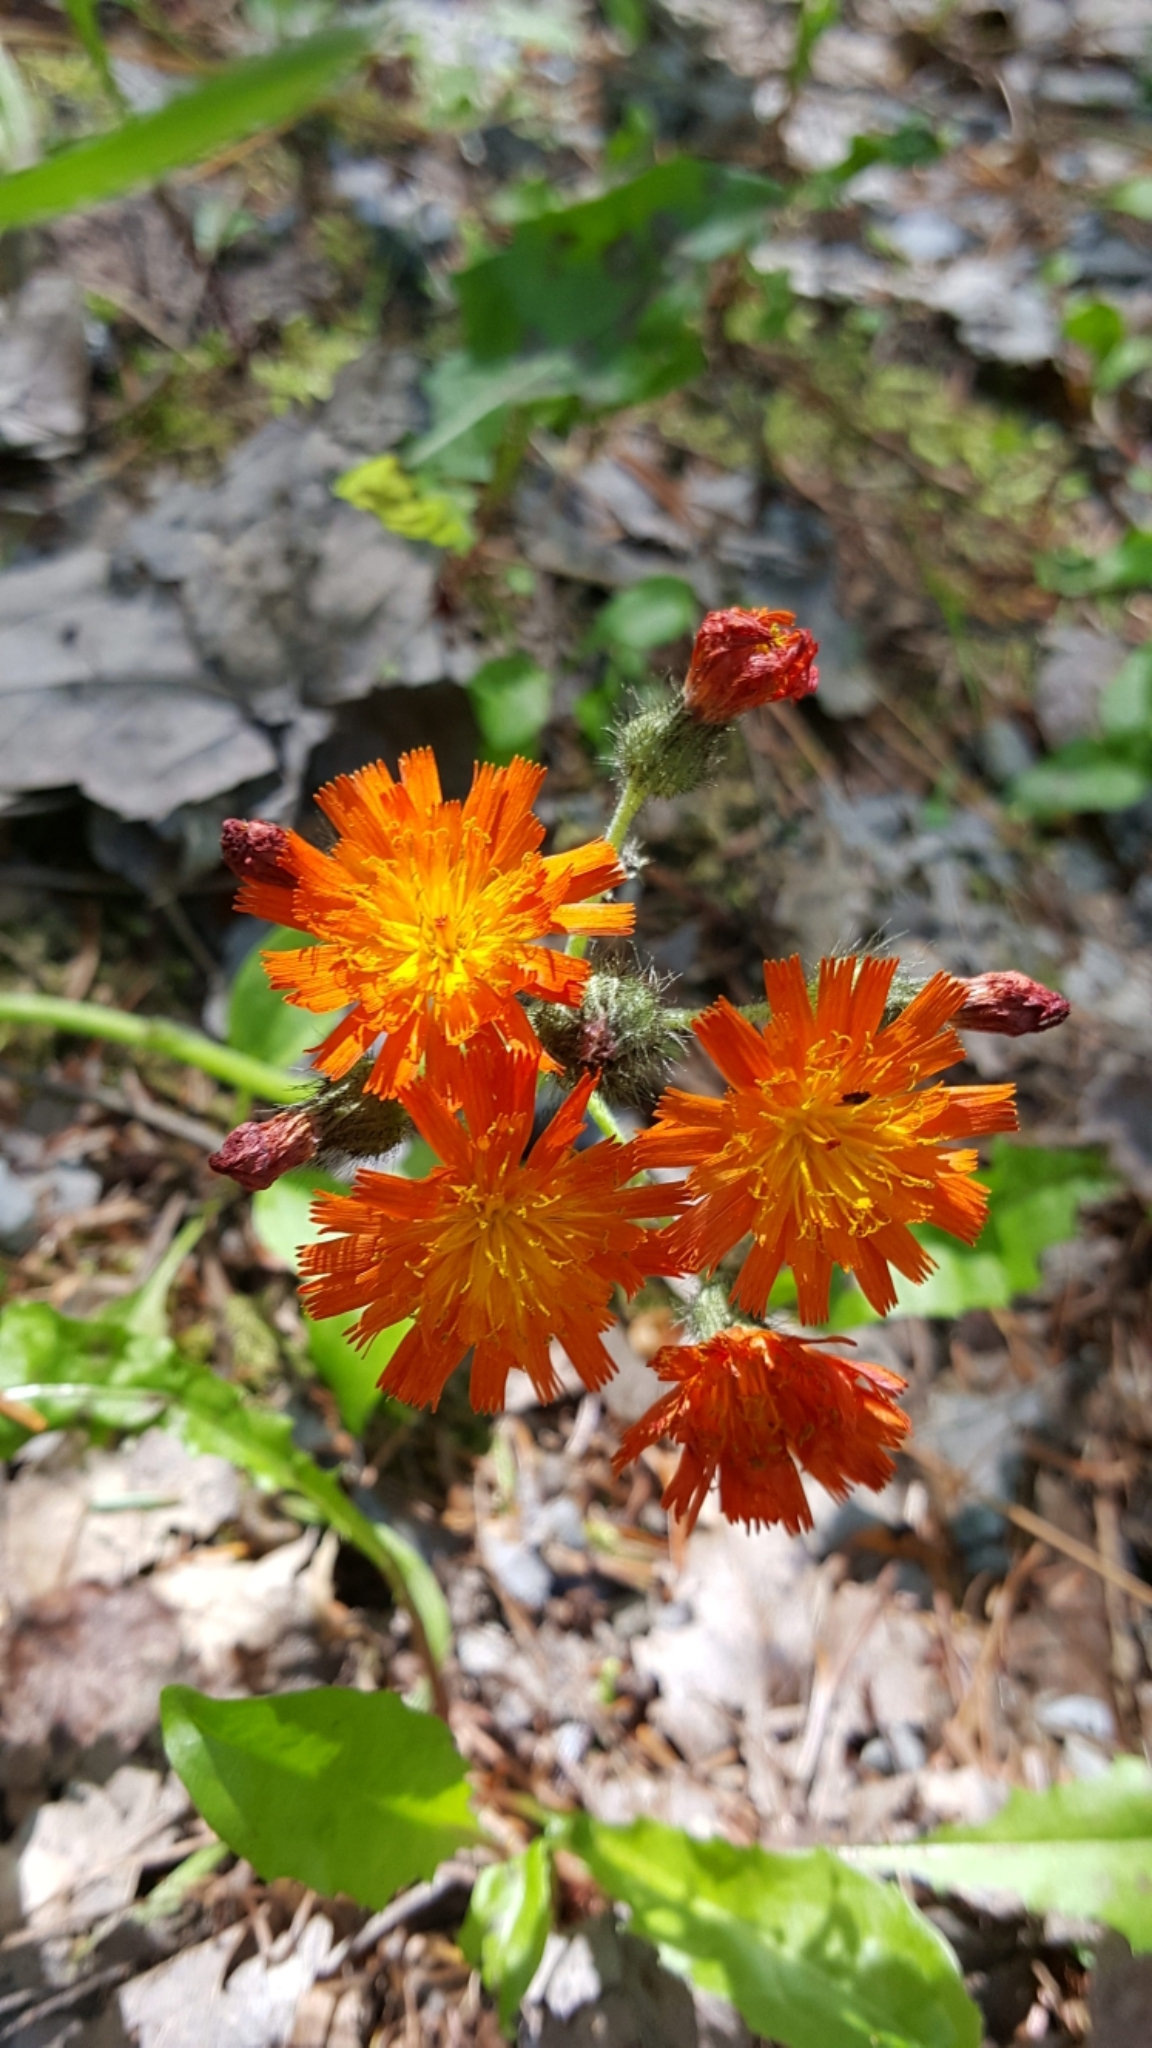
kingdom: Plantae
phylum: Tracheophyta
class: Magnoliopsida
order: Asterales
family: Asteraceae
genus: Pilosella
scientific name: Pilosella aurantiaca
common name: Fox-and-cubs
